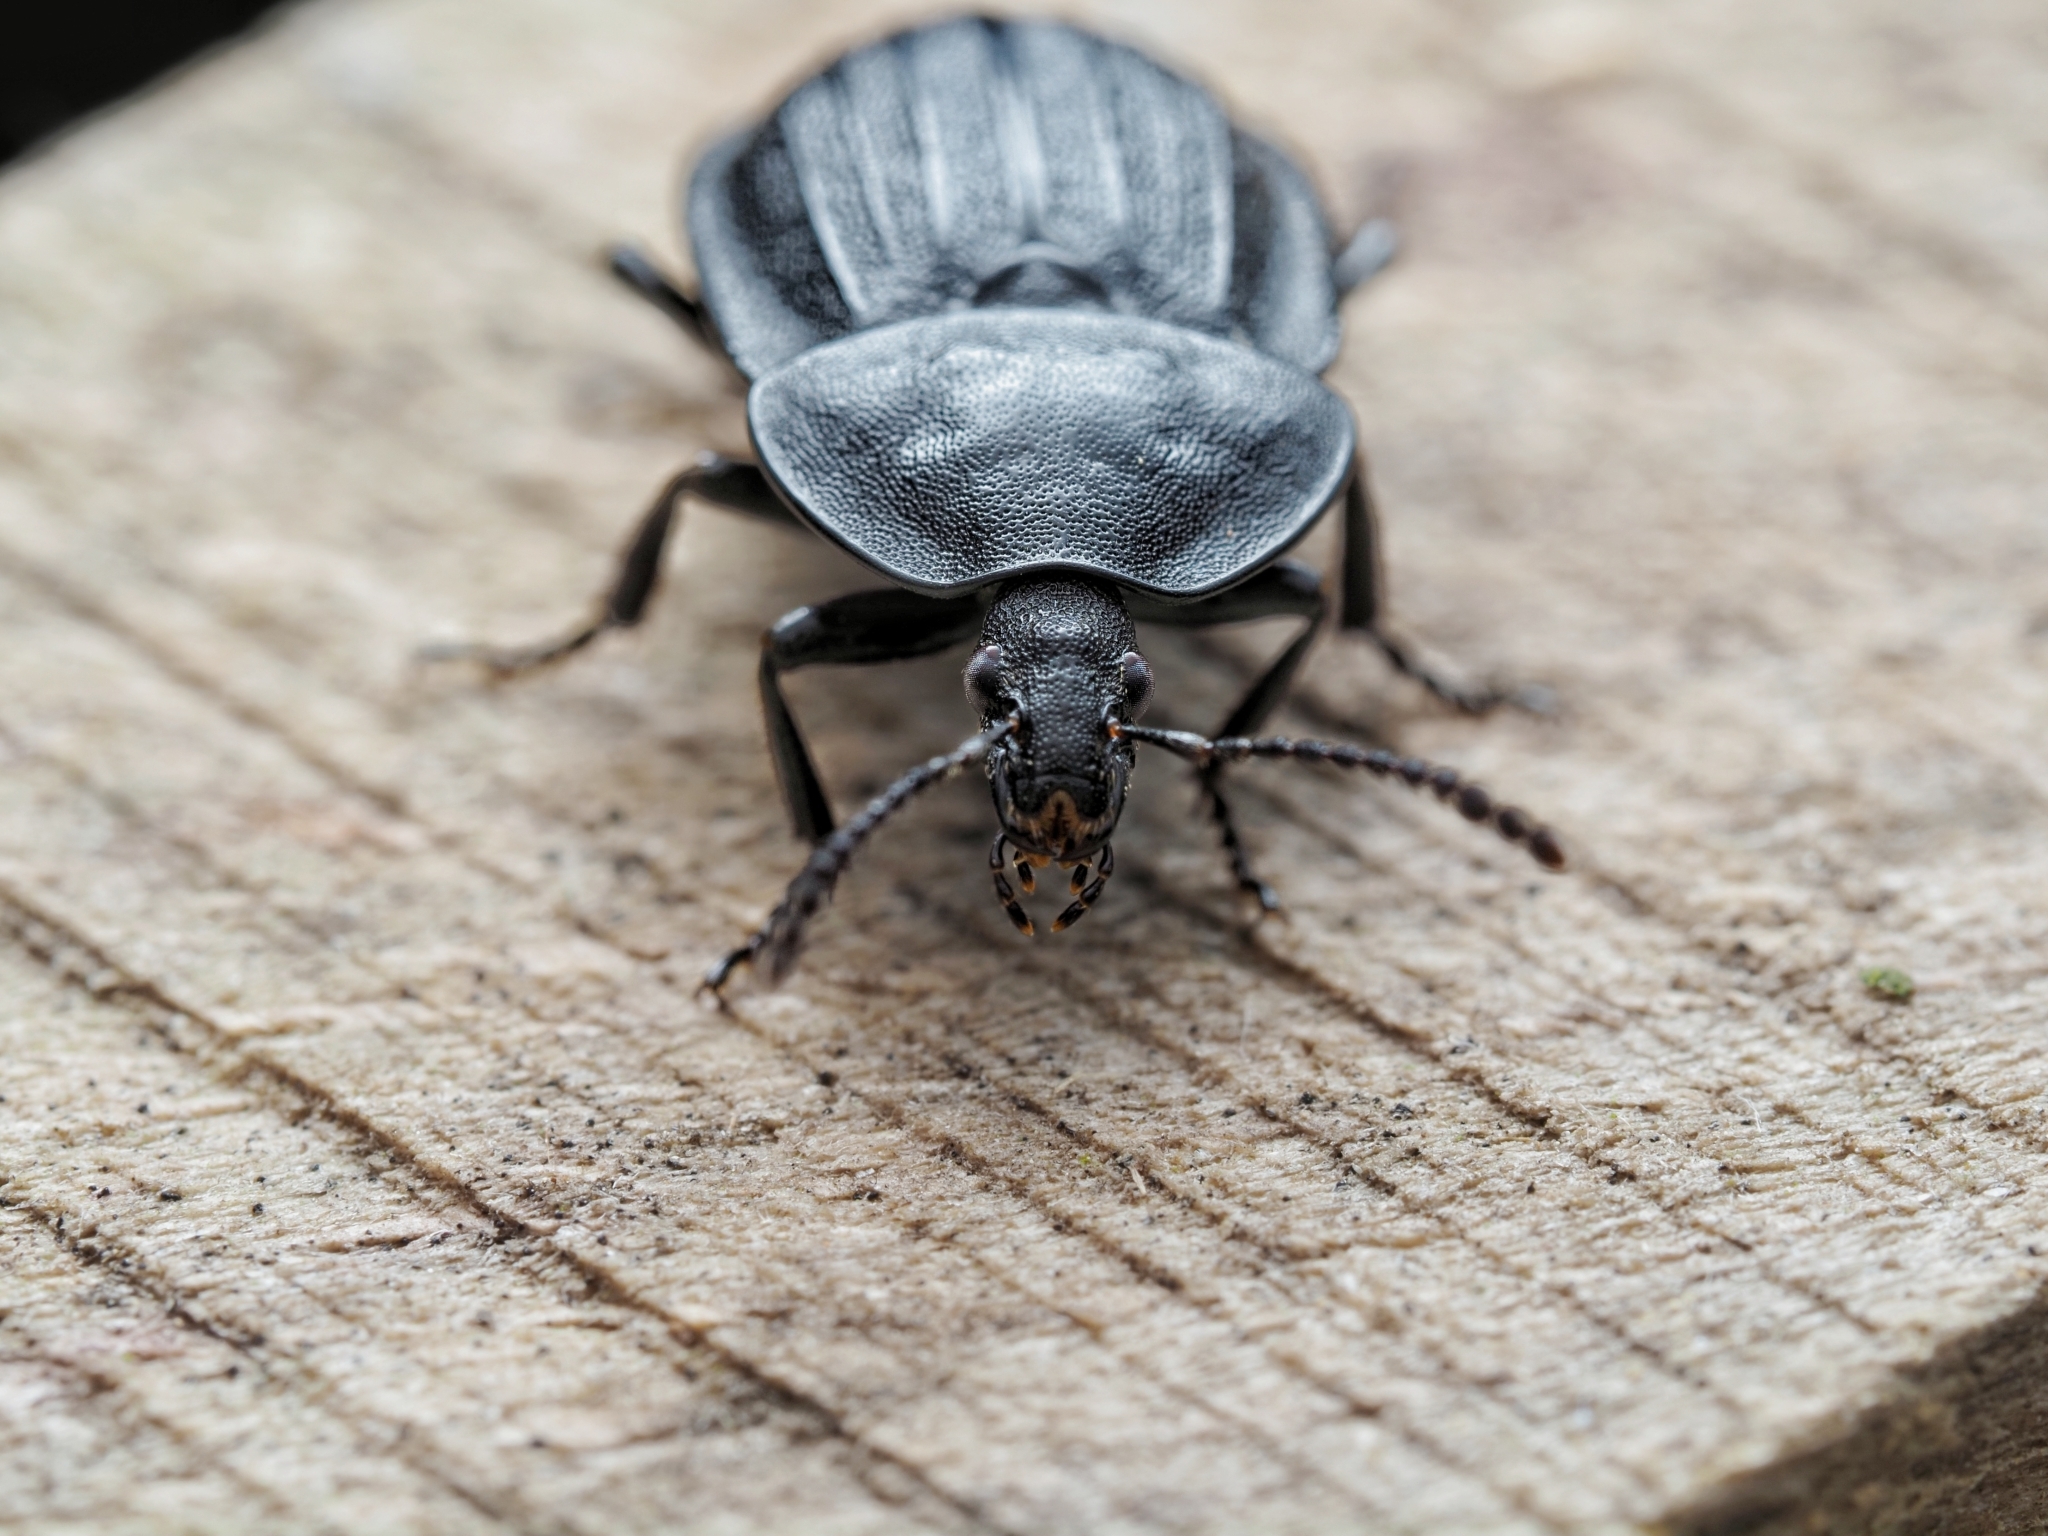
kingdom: Animalia
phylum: Arthropoda
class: Insecta
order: Coleoptera
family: Staphylinidae
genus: Silpha
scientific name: Silpha atrata
